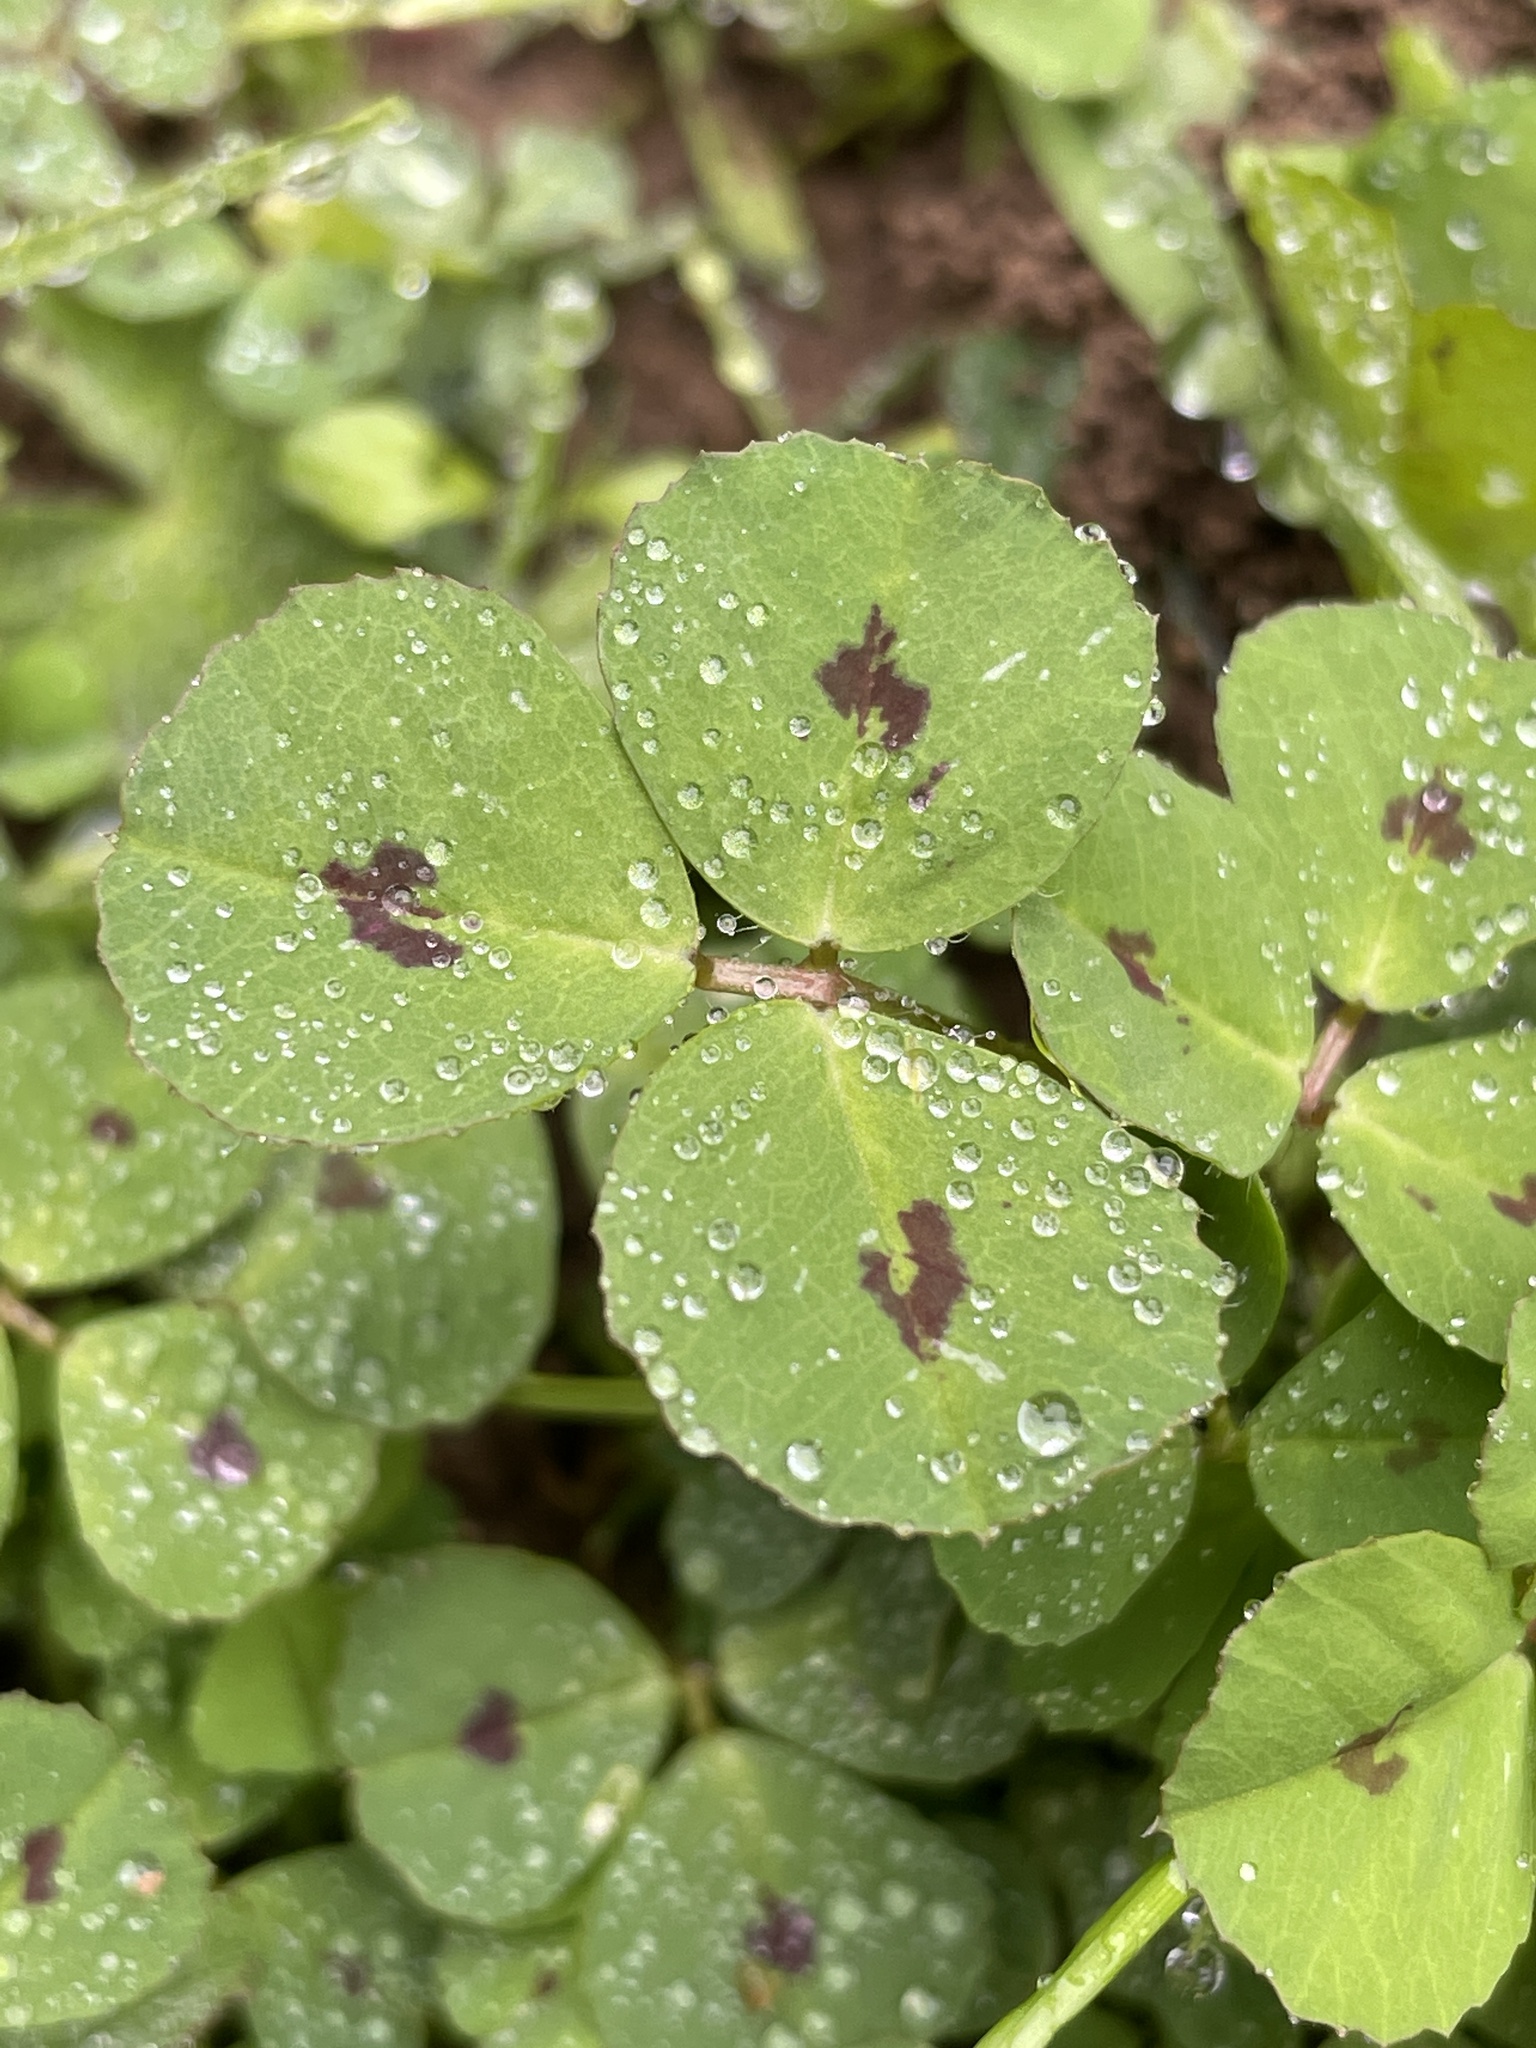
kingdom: Plantae
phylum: Tracheophyta
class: Magnoliopsida
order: Fabales
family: Fabaceae
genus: Medicago
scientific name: Medicago arabica
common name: Spotted medick
